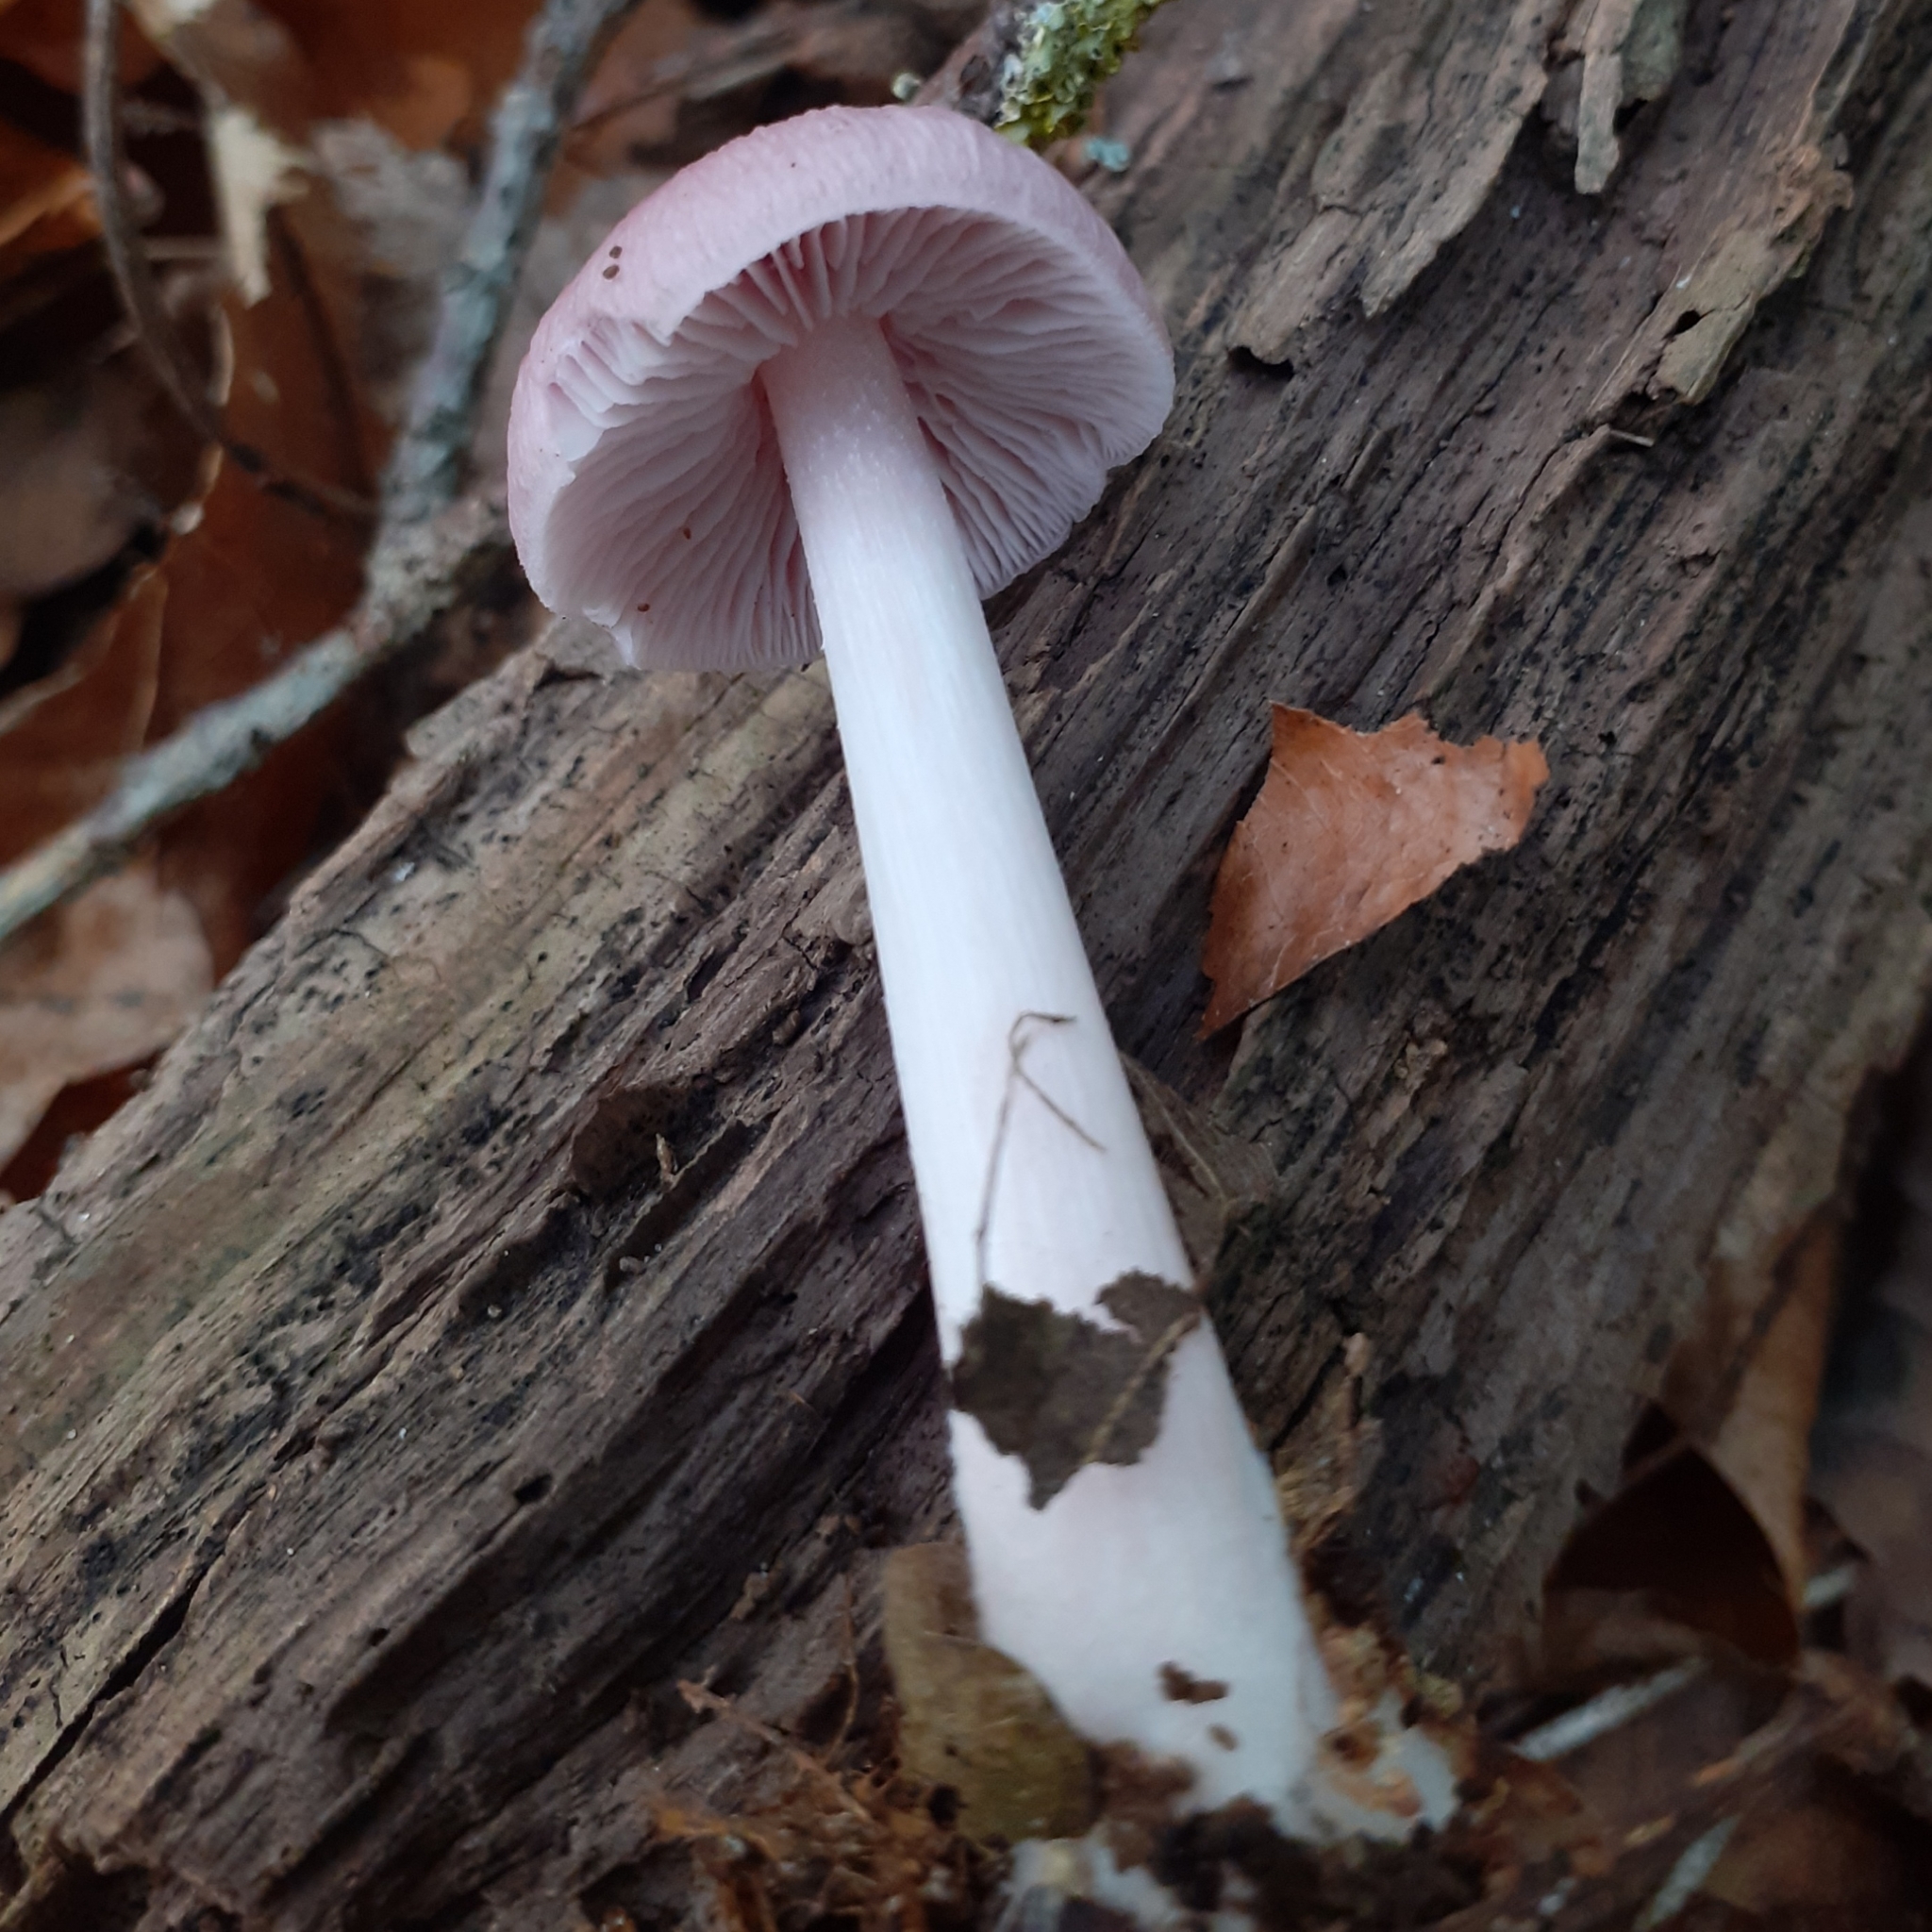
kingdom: Fungi
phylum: Basidiomycota
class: Agaricomycetes
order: Agaricales
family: Mycenaceae
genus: Mycena
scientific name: Mycena rosea
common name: Rosy bonnet
